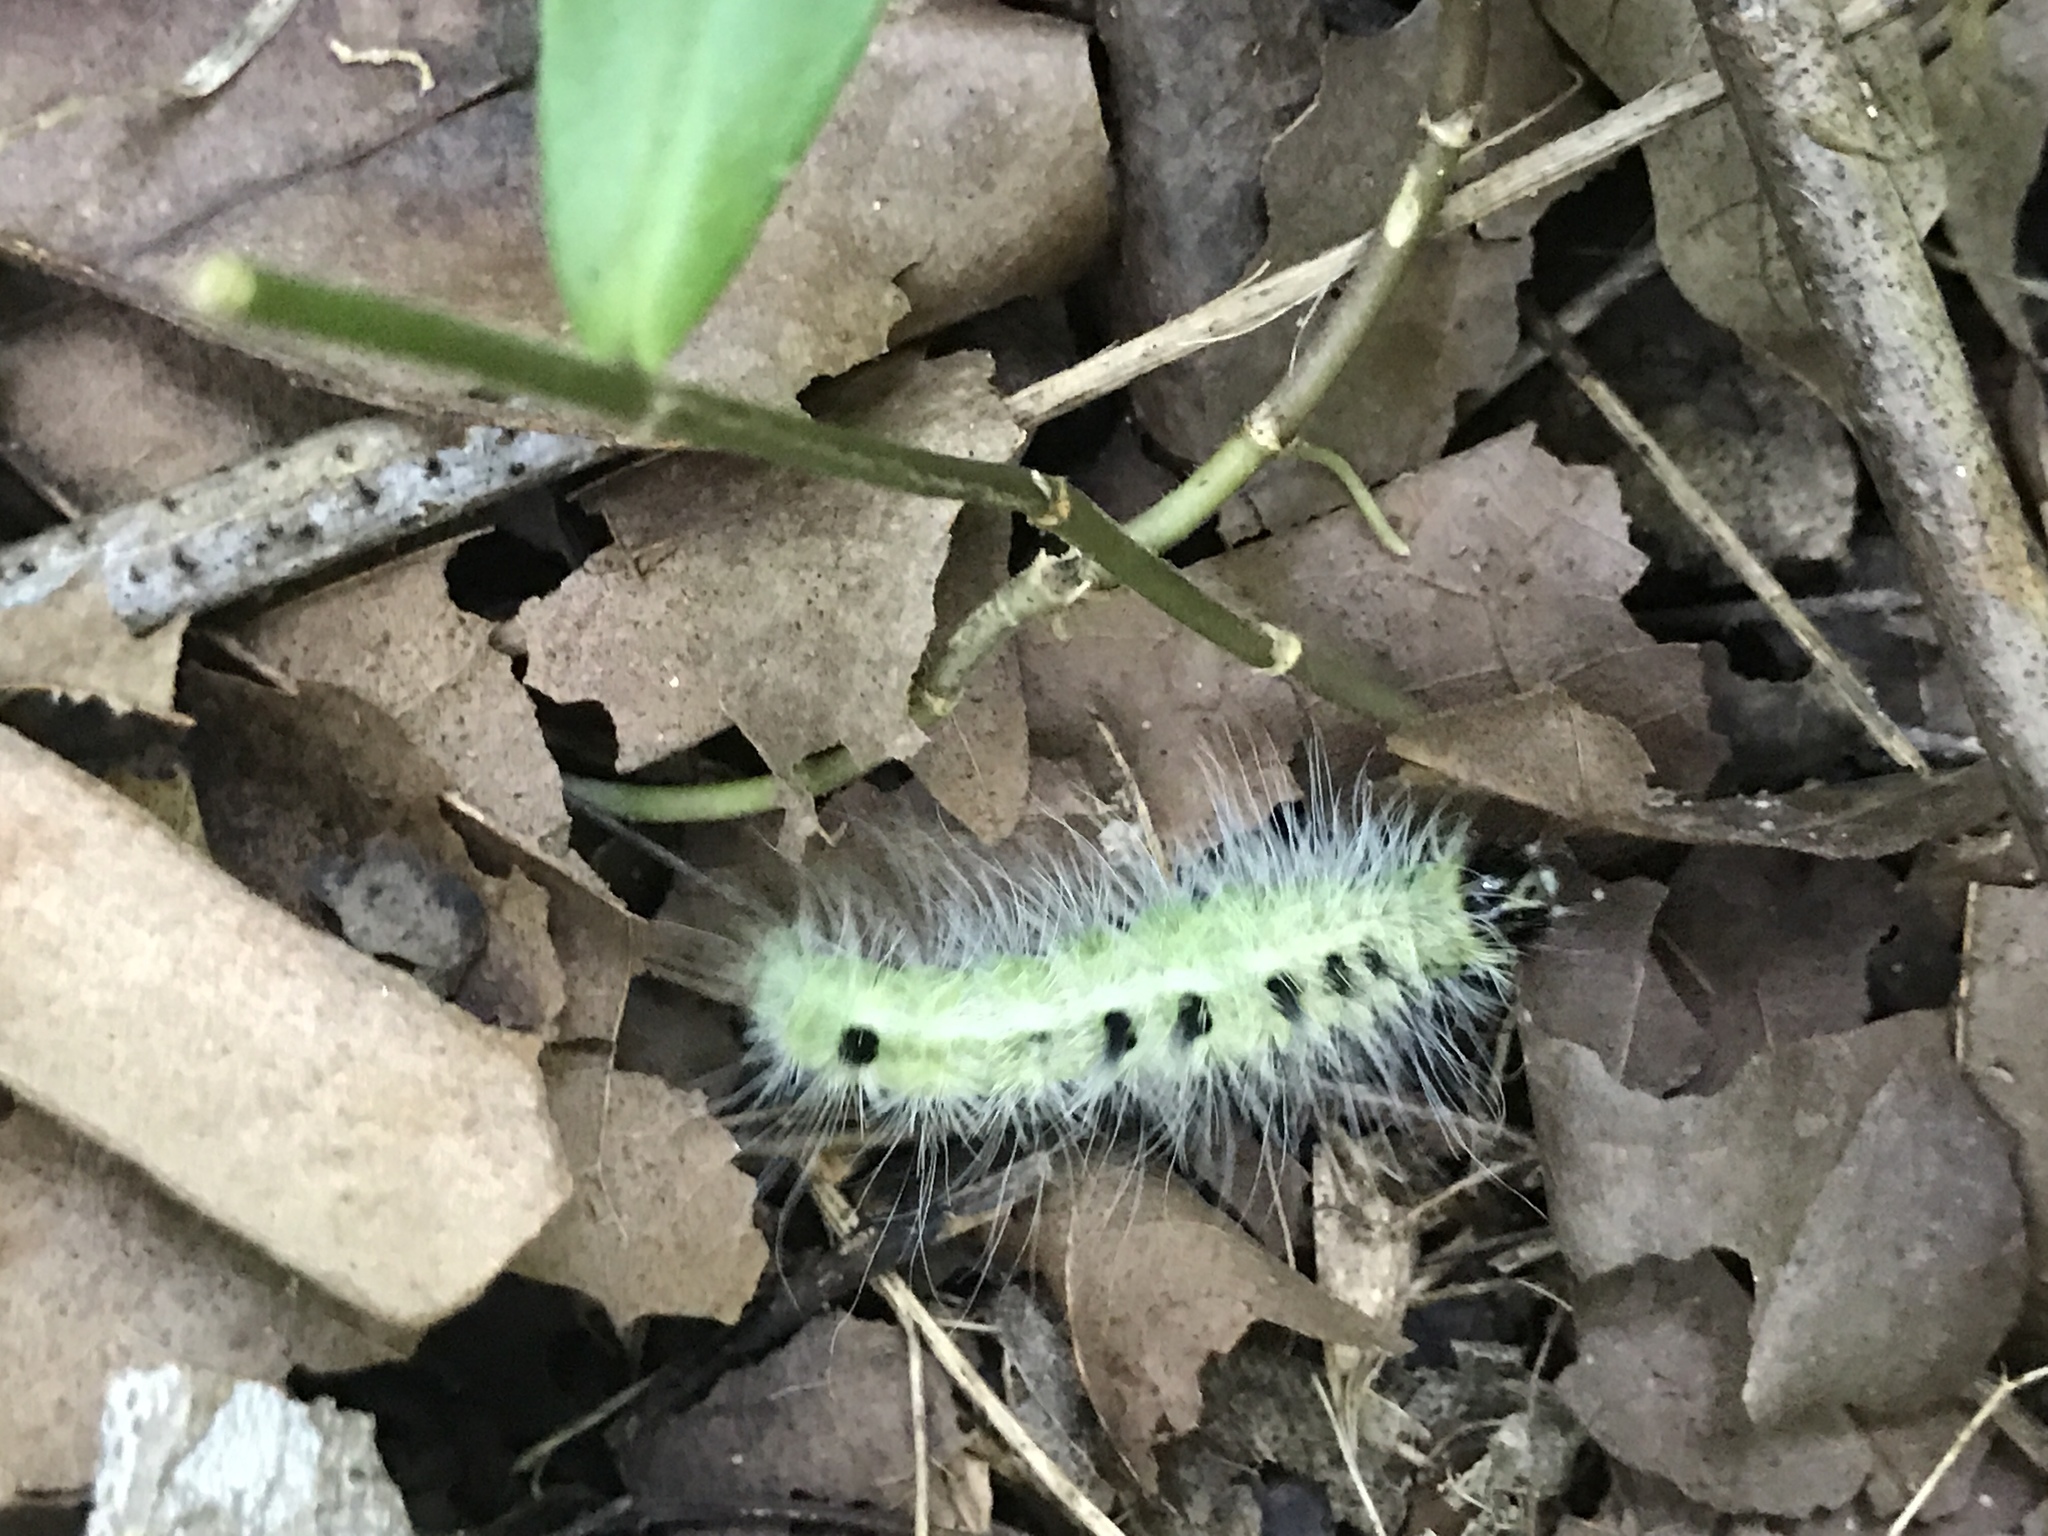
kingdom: Animalia
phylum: Arthropoda
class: Insecta
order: Lepidoptera
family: Noctuidae
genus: Acronicta
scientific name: Acronicta rubricoma
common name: Hackberry dagger
